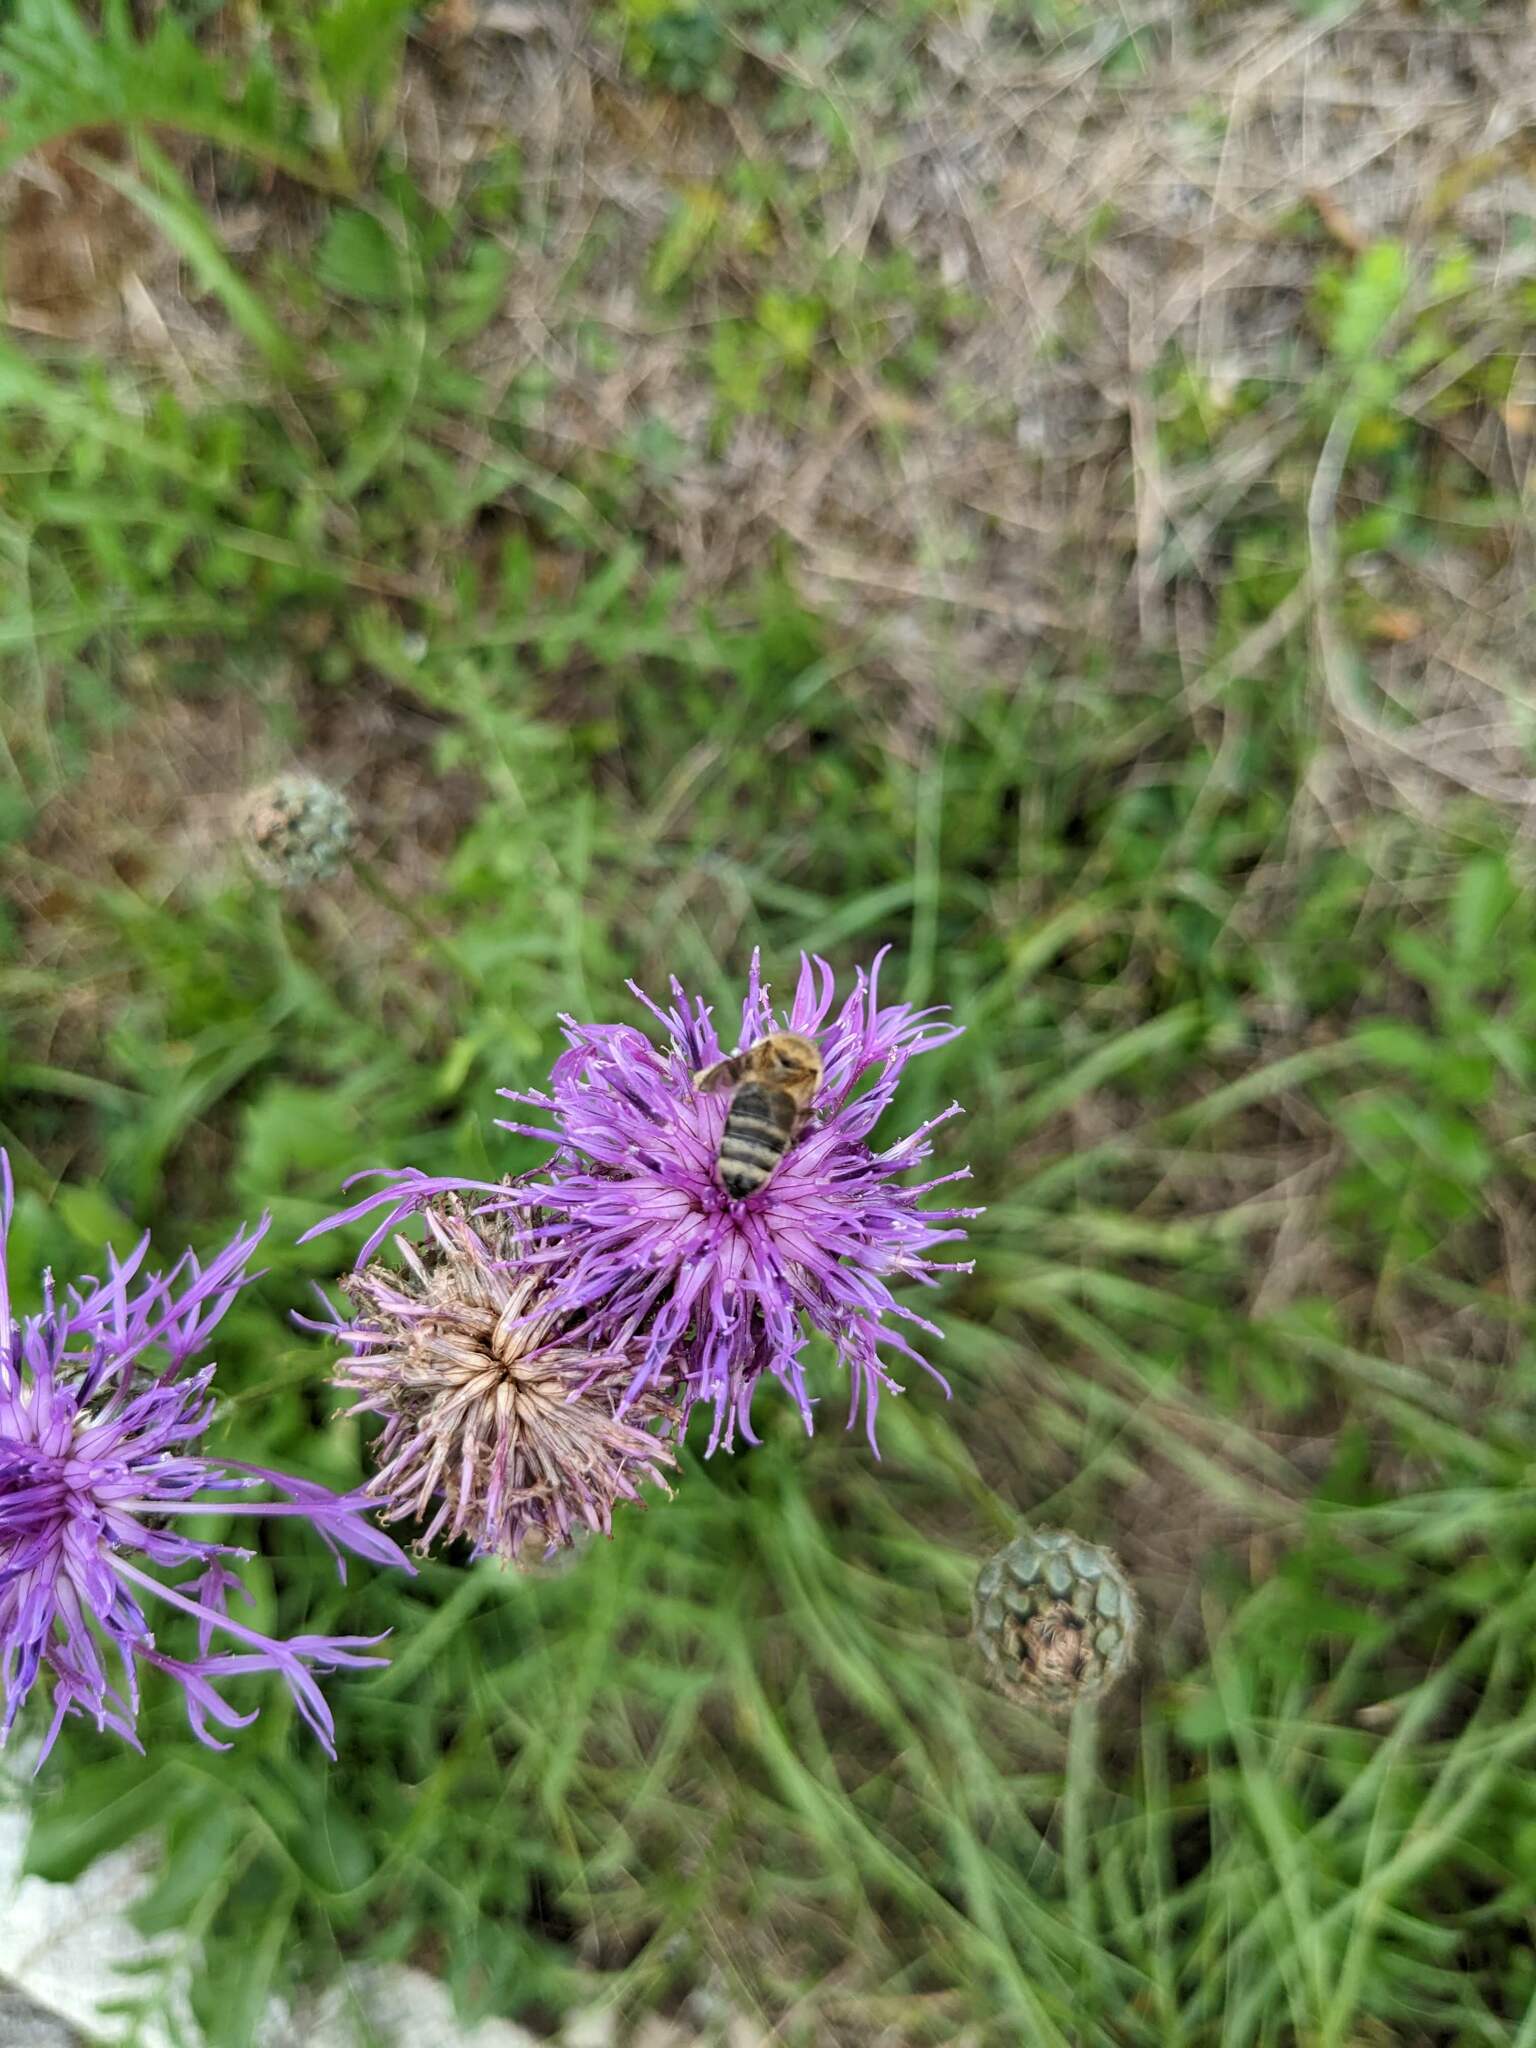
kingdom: Animalia
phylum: Arthropoda
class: Insecta
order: Hymenoptera
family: Apidae
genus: Apis
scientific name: Apis mellifera
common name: Honey bee
